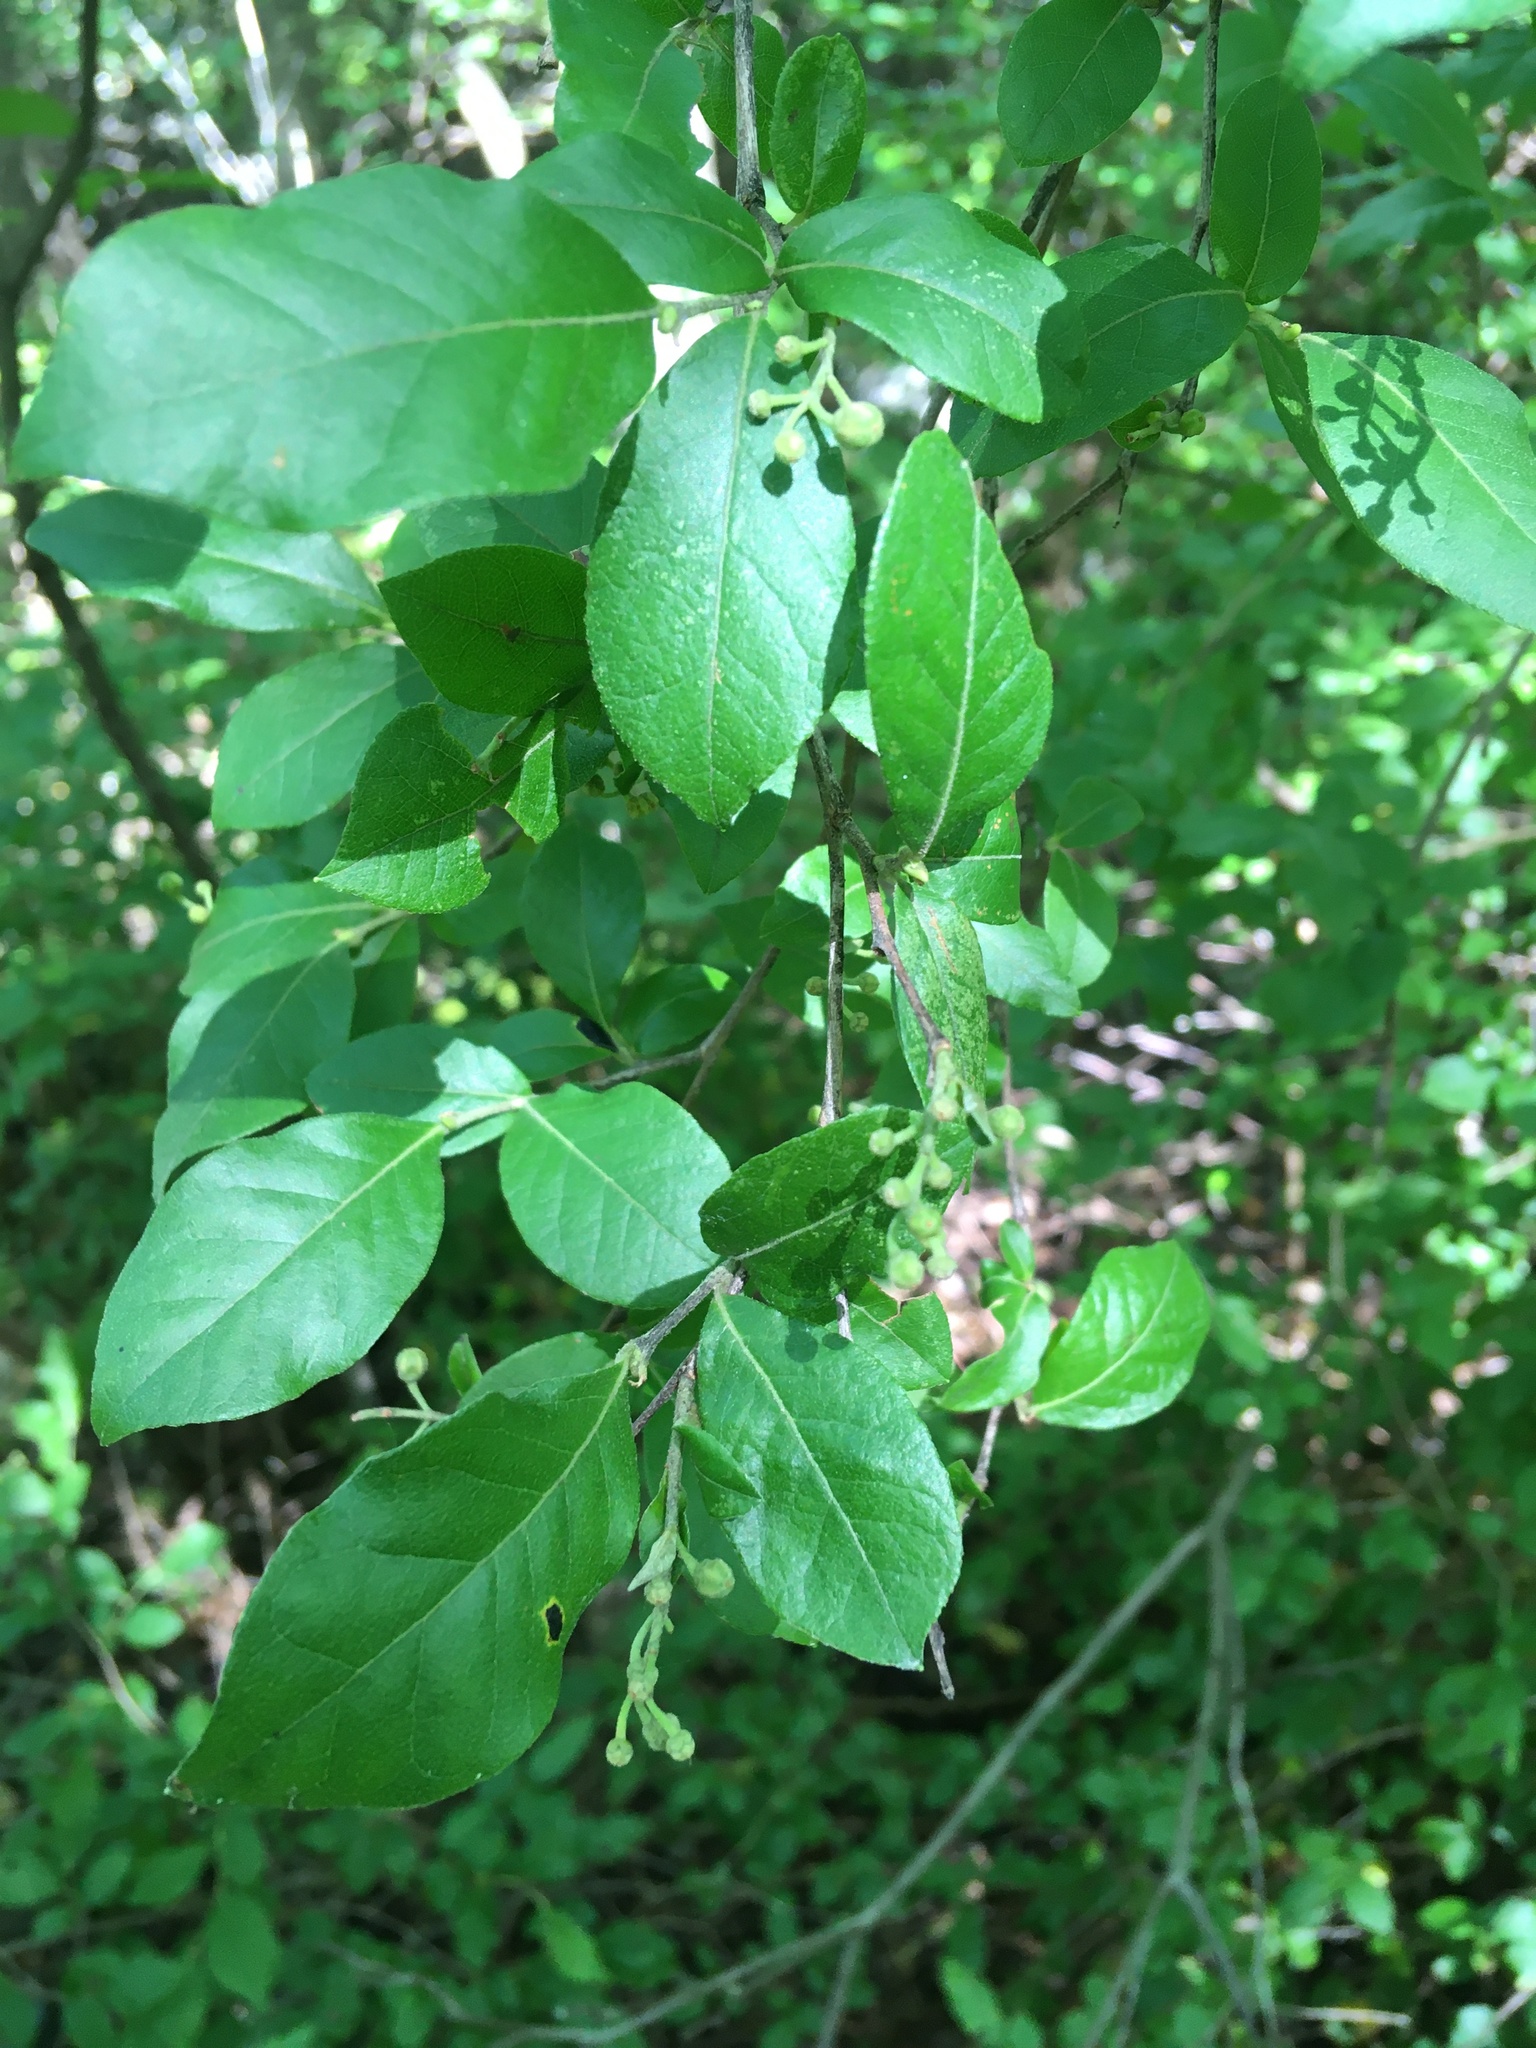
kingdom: Plantae
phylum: Tracheophyta
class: Magnoliopsida
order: Ericales
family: Ericaceae
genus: Lyonia
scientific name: Lyonia ligustrina
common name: Maleberry
